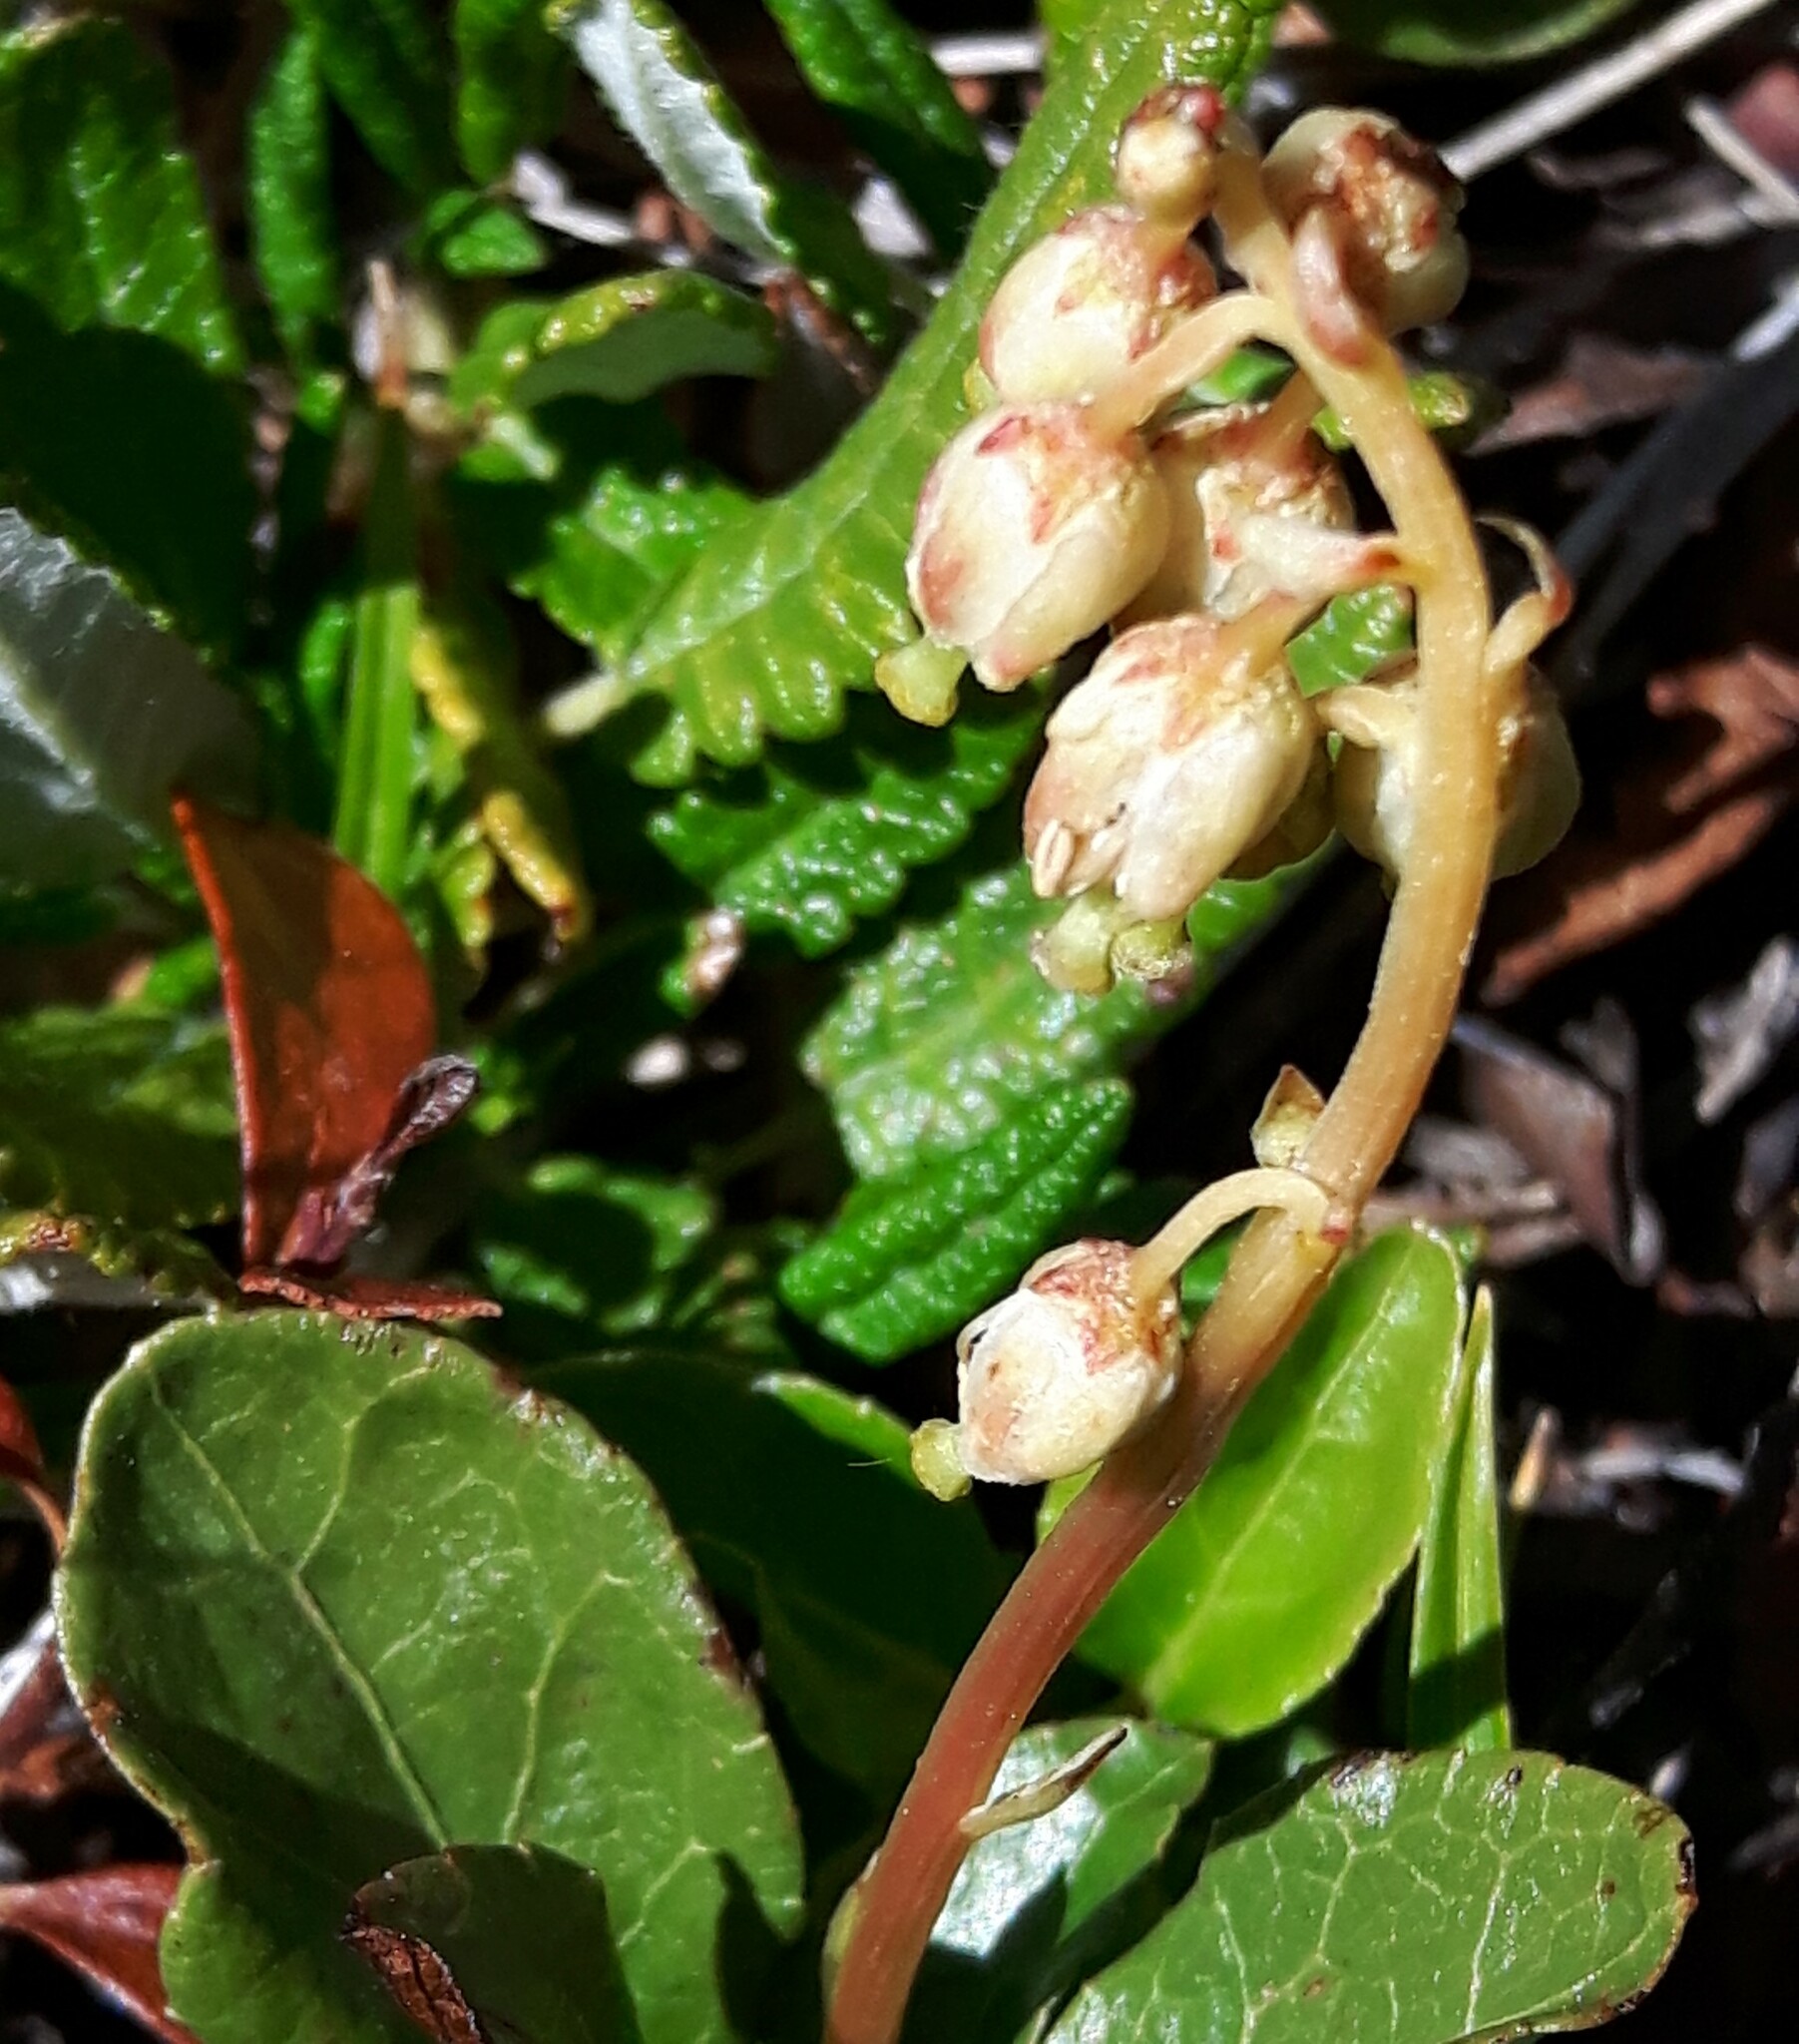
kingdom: Plantae
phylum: Tracheophyta
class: Magnoliopsida
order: Ericales
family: Ericaceae
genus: Orthilia
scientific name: Orthilia secunda
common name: One-sided orthilia
